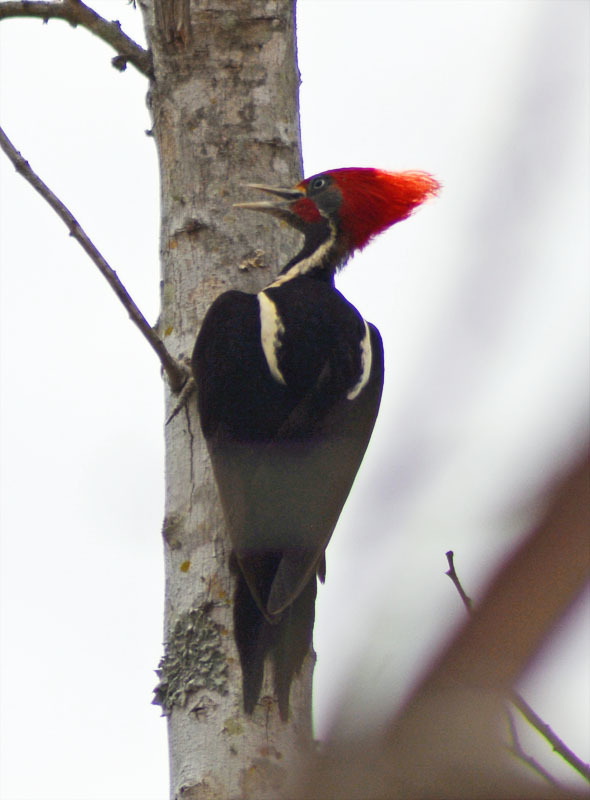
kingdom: Animalia
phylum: Chordata
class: Aves
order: Piciformes
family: Picidae
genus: Dryocopus
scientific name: Dryocopus lineatus
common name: Lineated woodpecker
